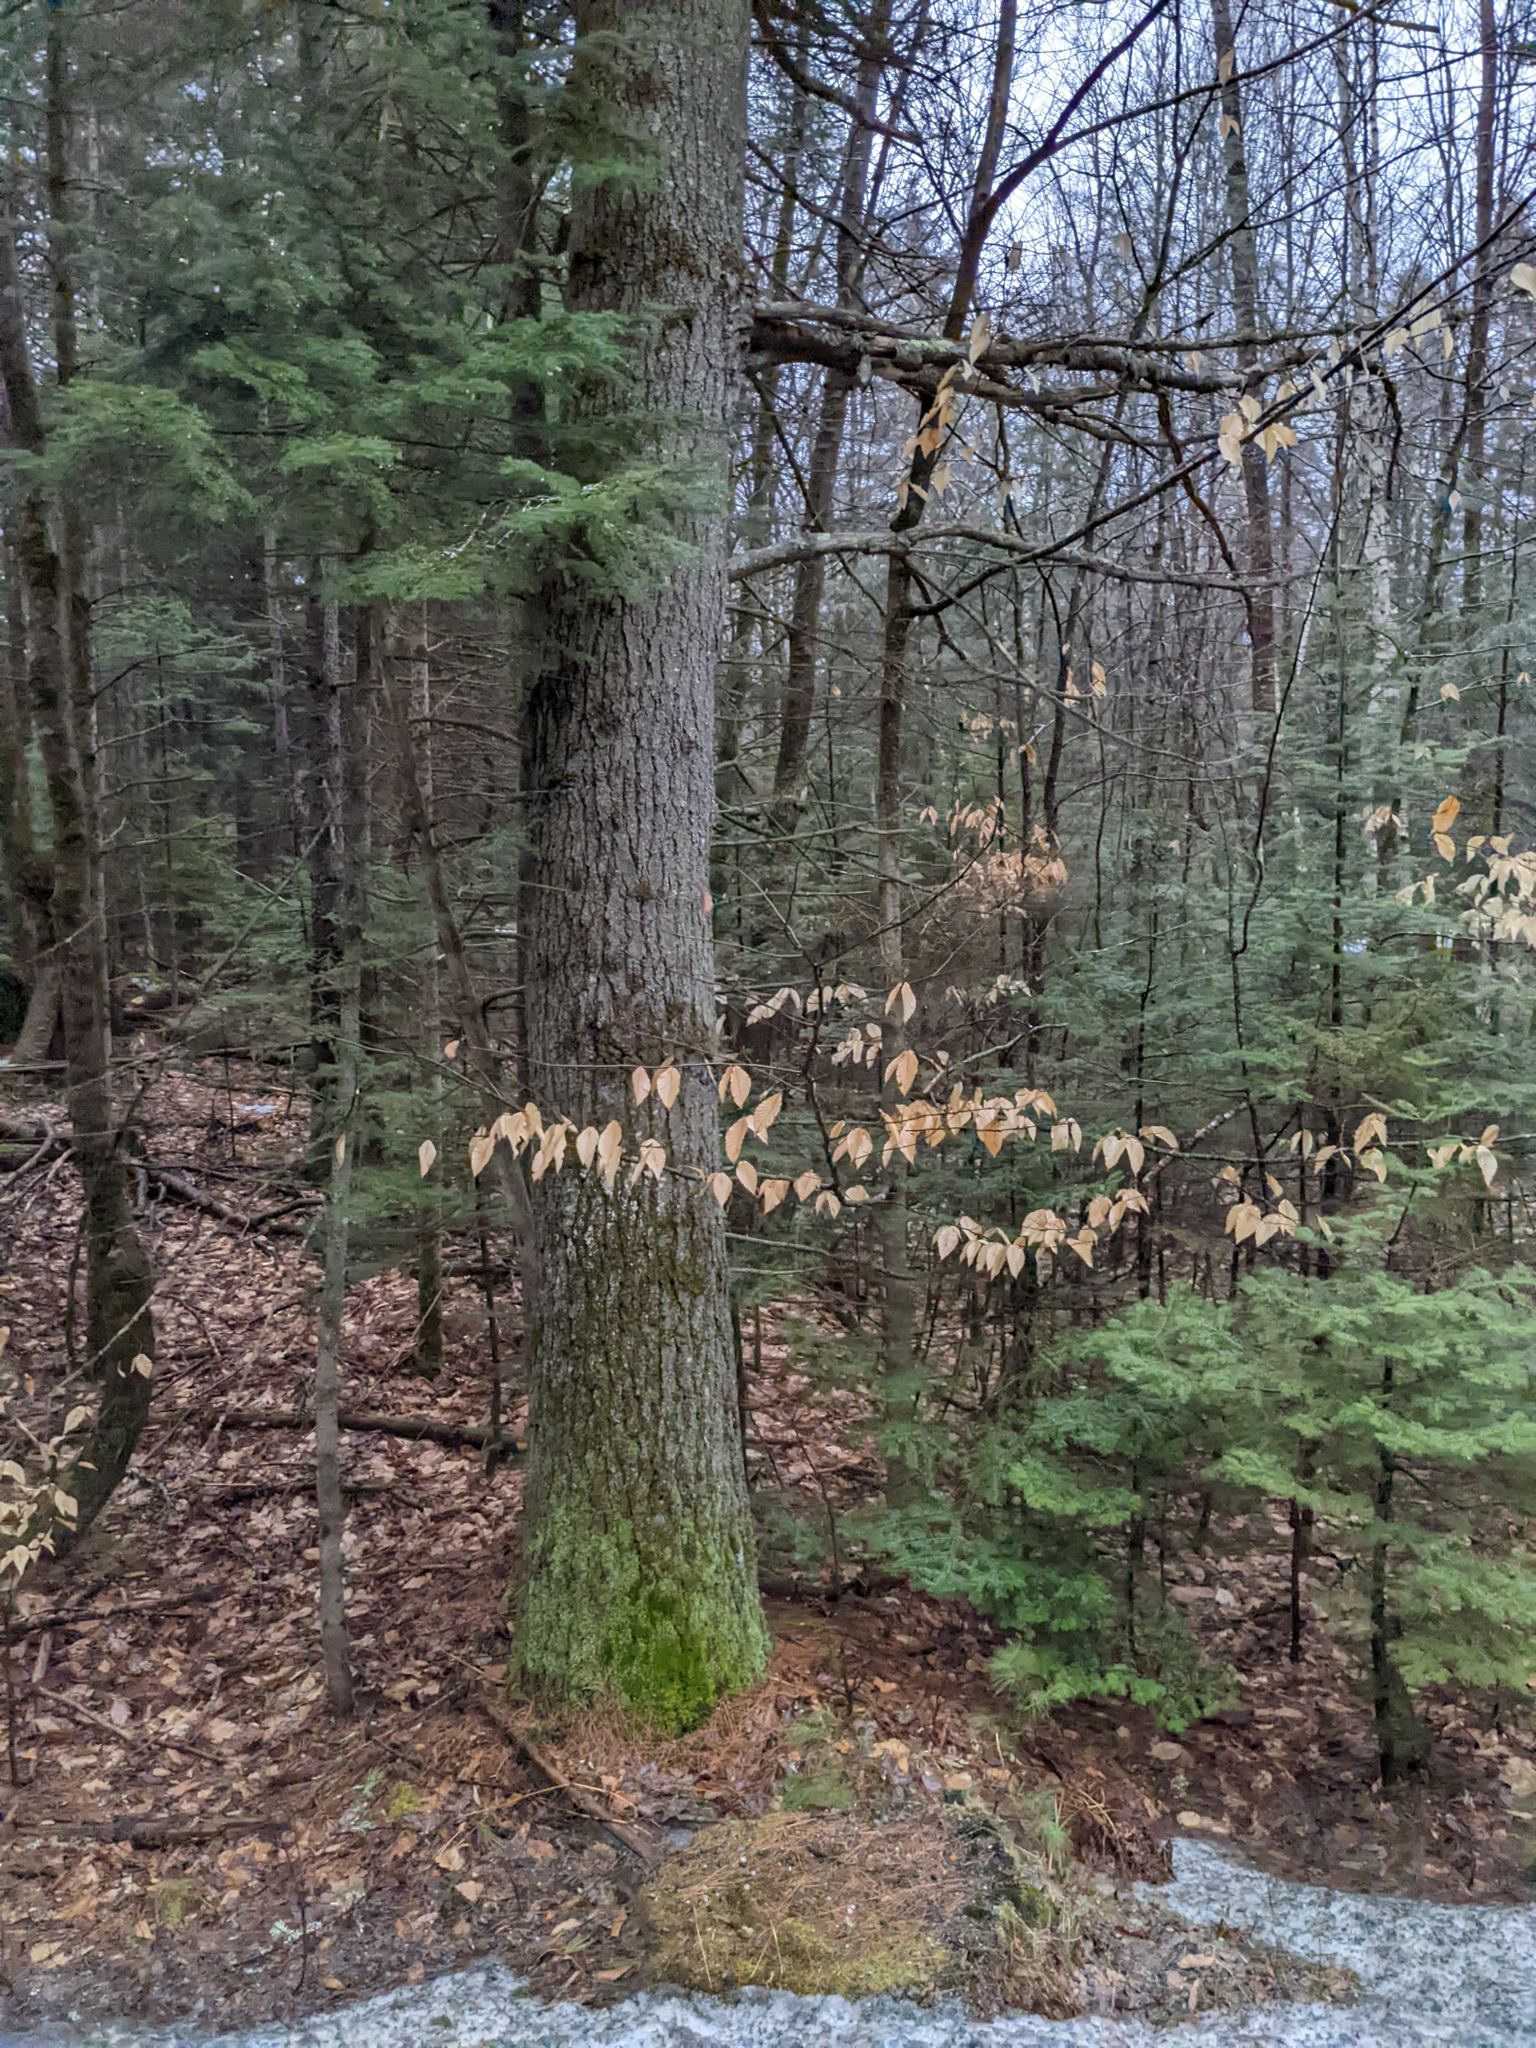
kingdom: Plantae
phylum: Tracheophyta
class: Magnoliopsida
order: Fagales
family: Fagaceae
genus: Fagus
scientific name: Fagus grandifolia
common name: American beech
